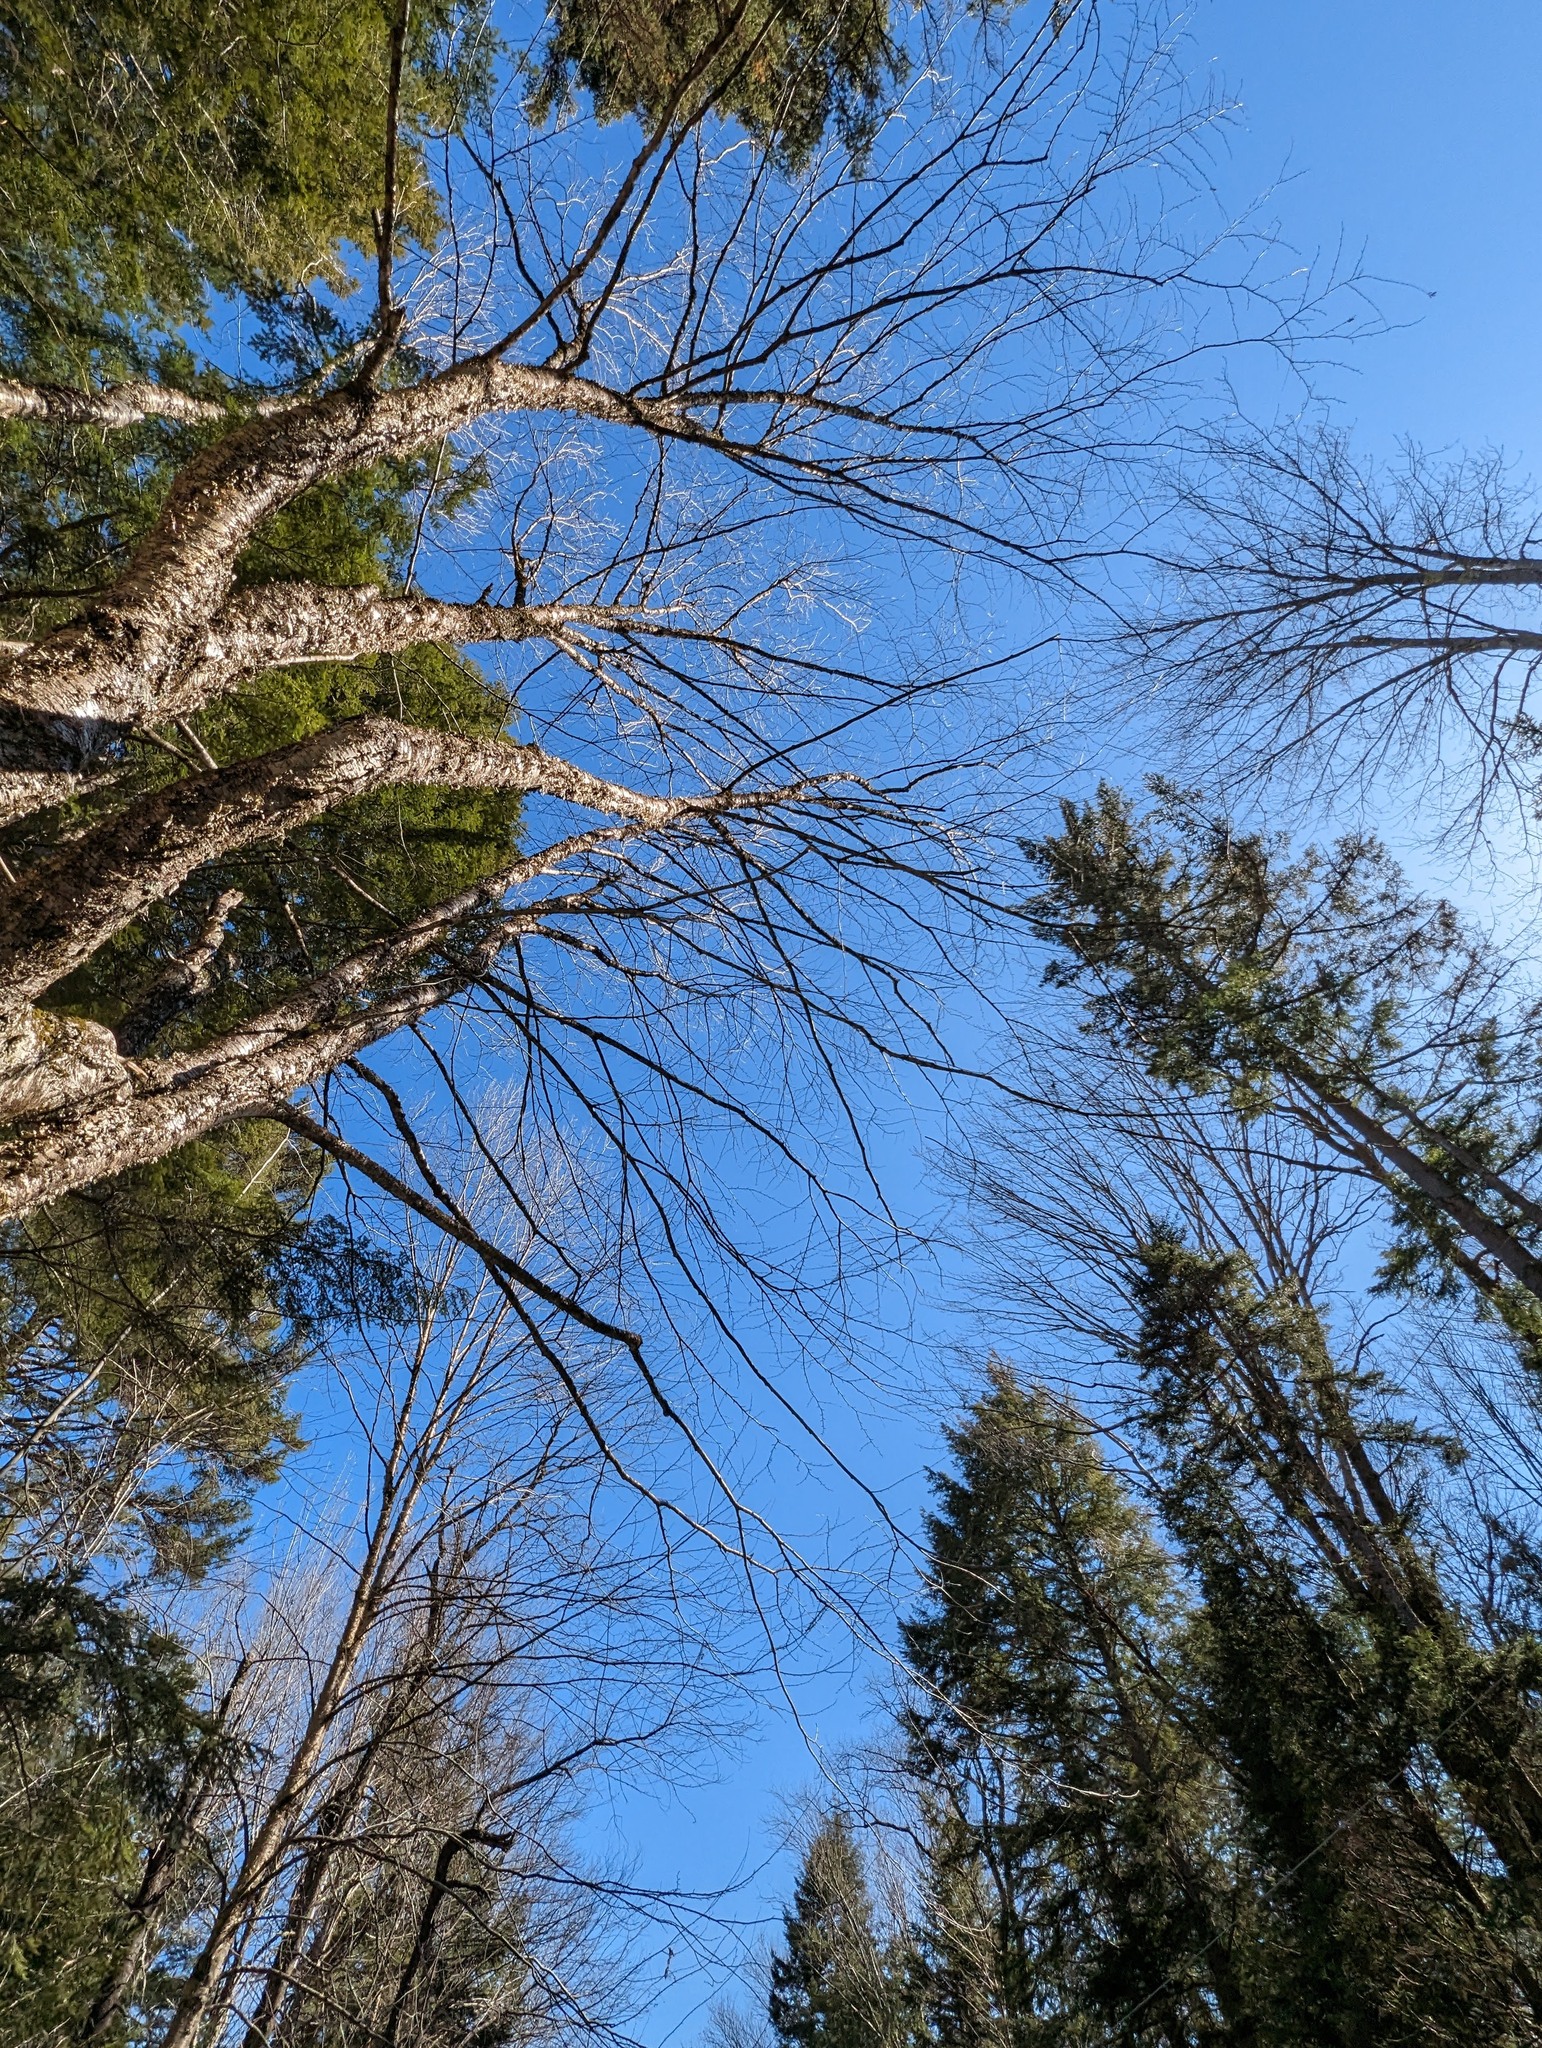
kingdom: Plantae
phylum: Tracheophyta
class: Magnoliopsida
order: Fagales
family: Betulaceae
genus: Betula
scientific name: Betula alleghaniensis
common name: Yellow birch
